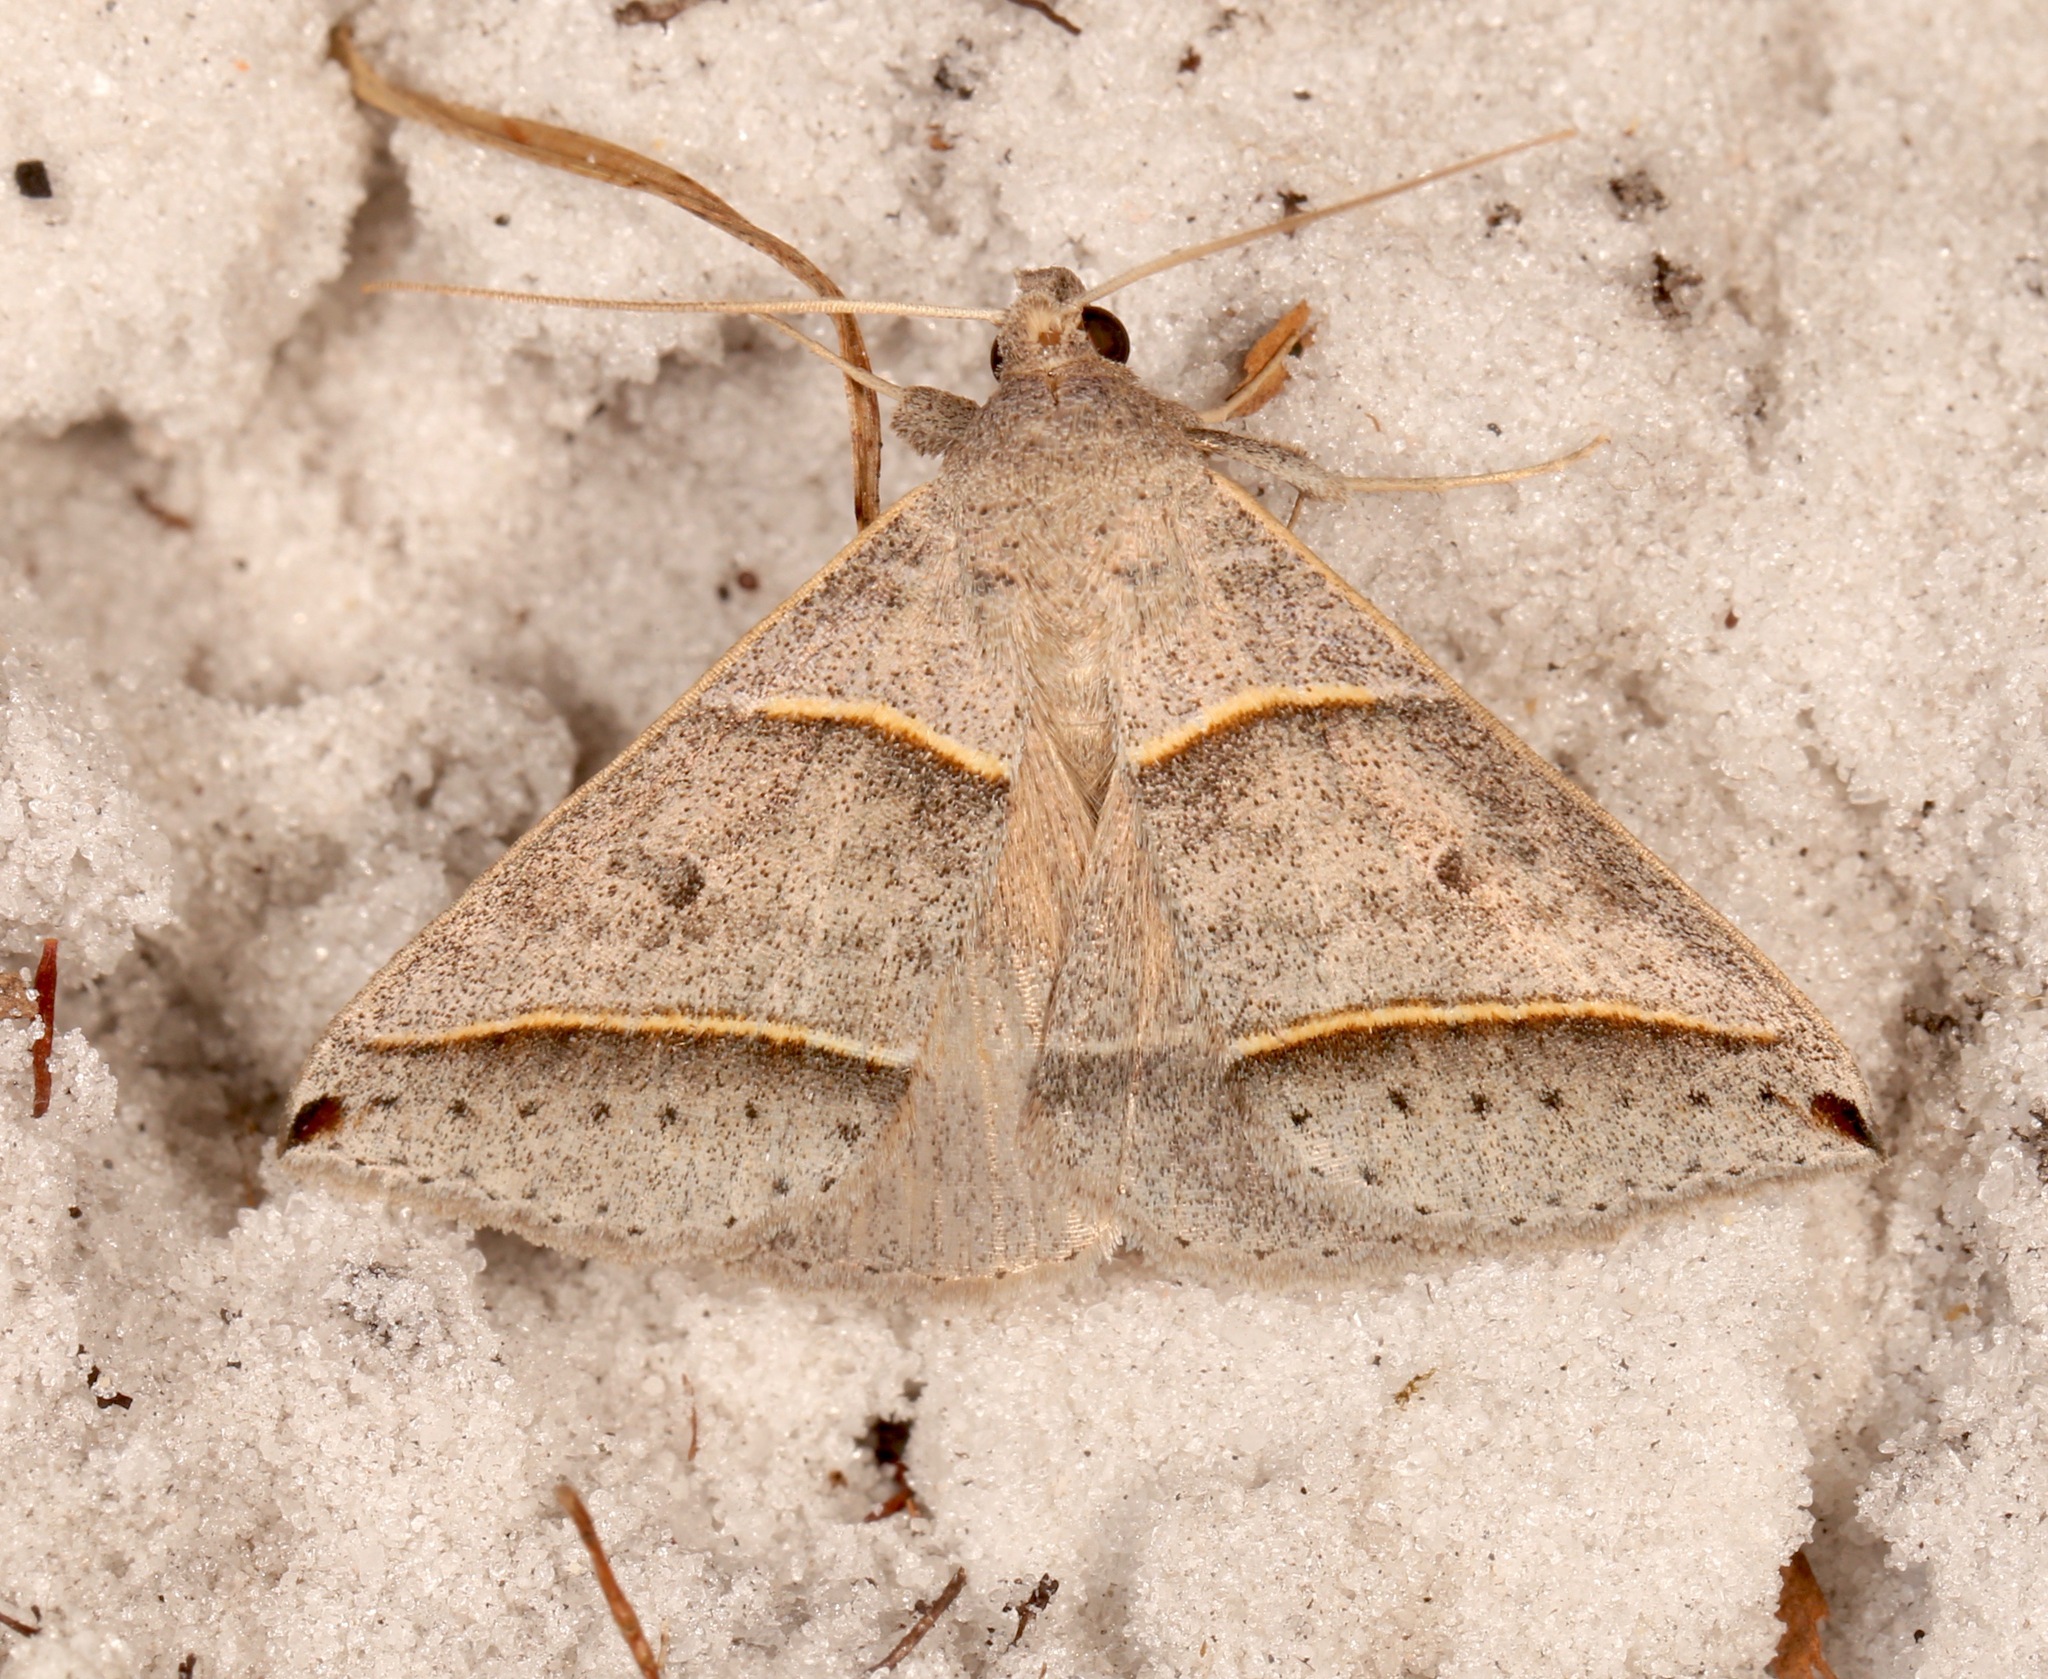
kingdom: Animalia
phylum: Arthropoda
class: Insecta
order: Lepidoptera
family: Erebidae
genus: Ptichodis
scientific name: Ptichodis vinculum
